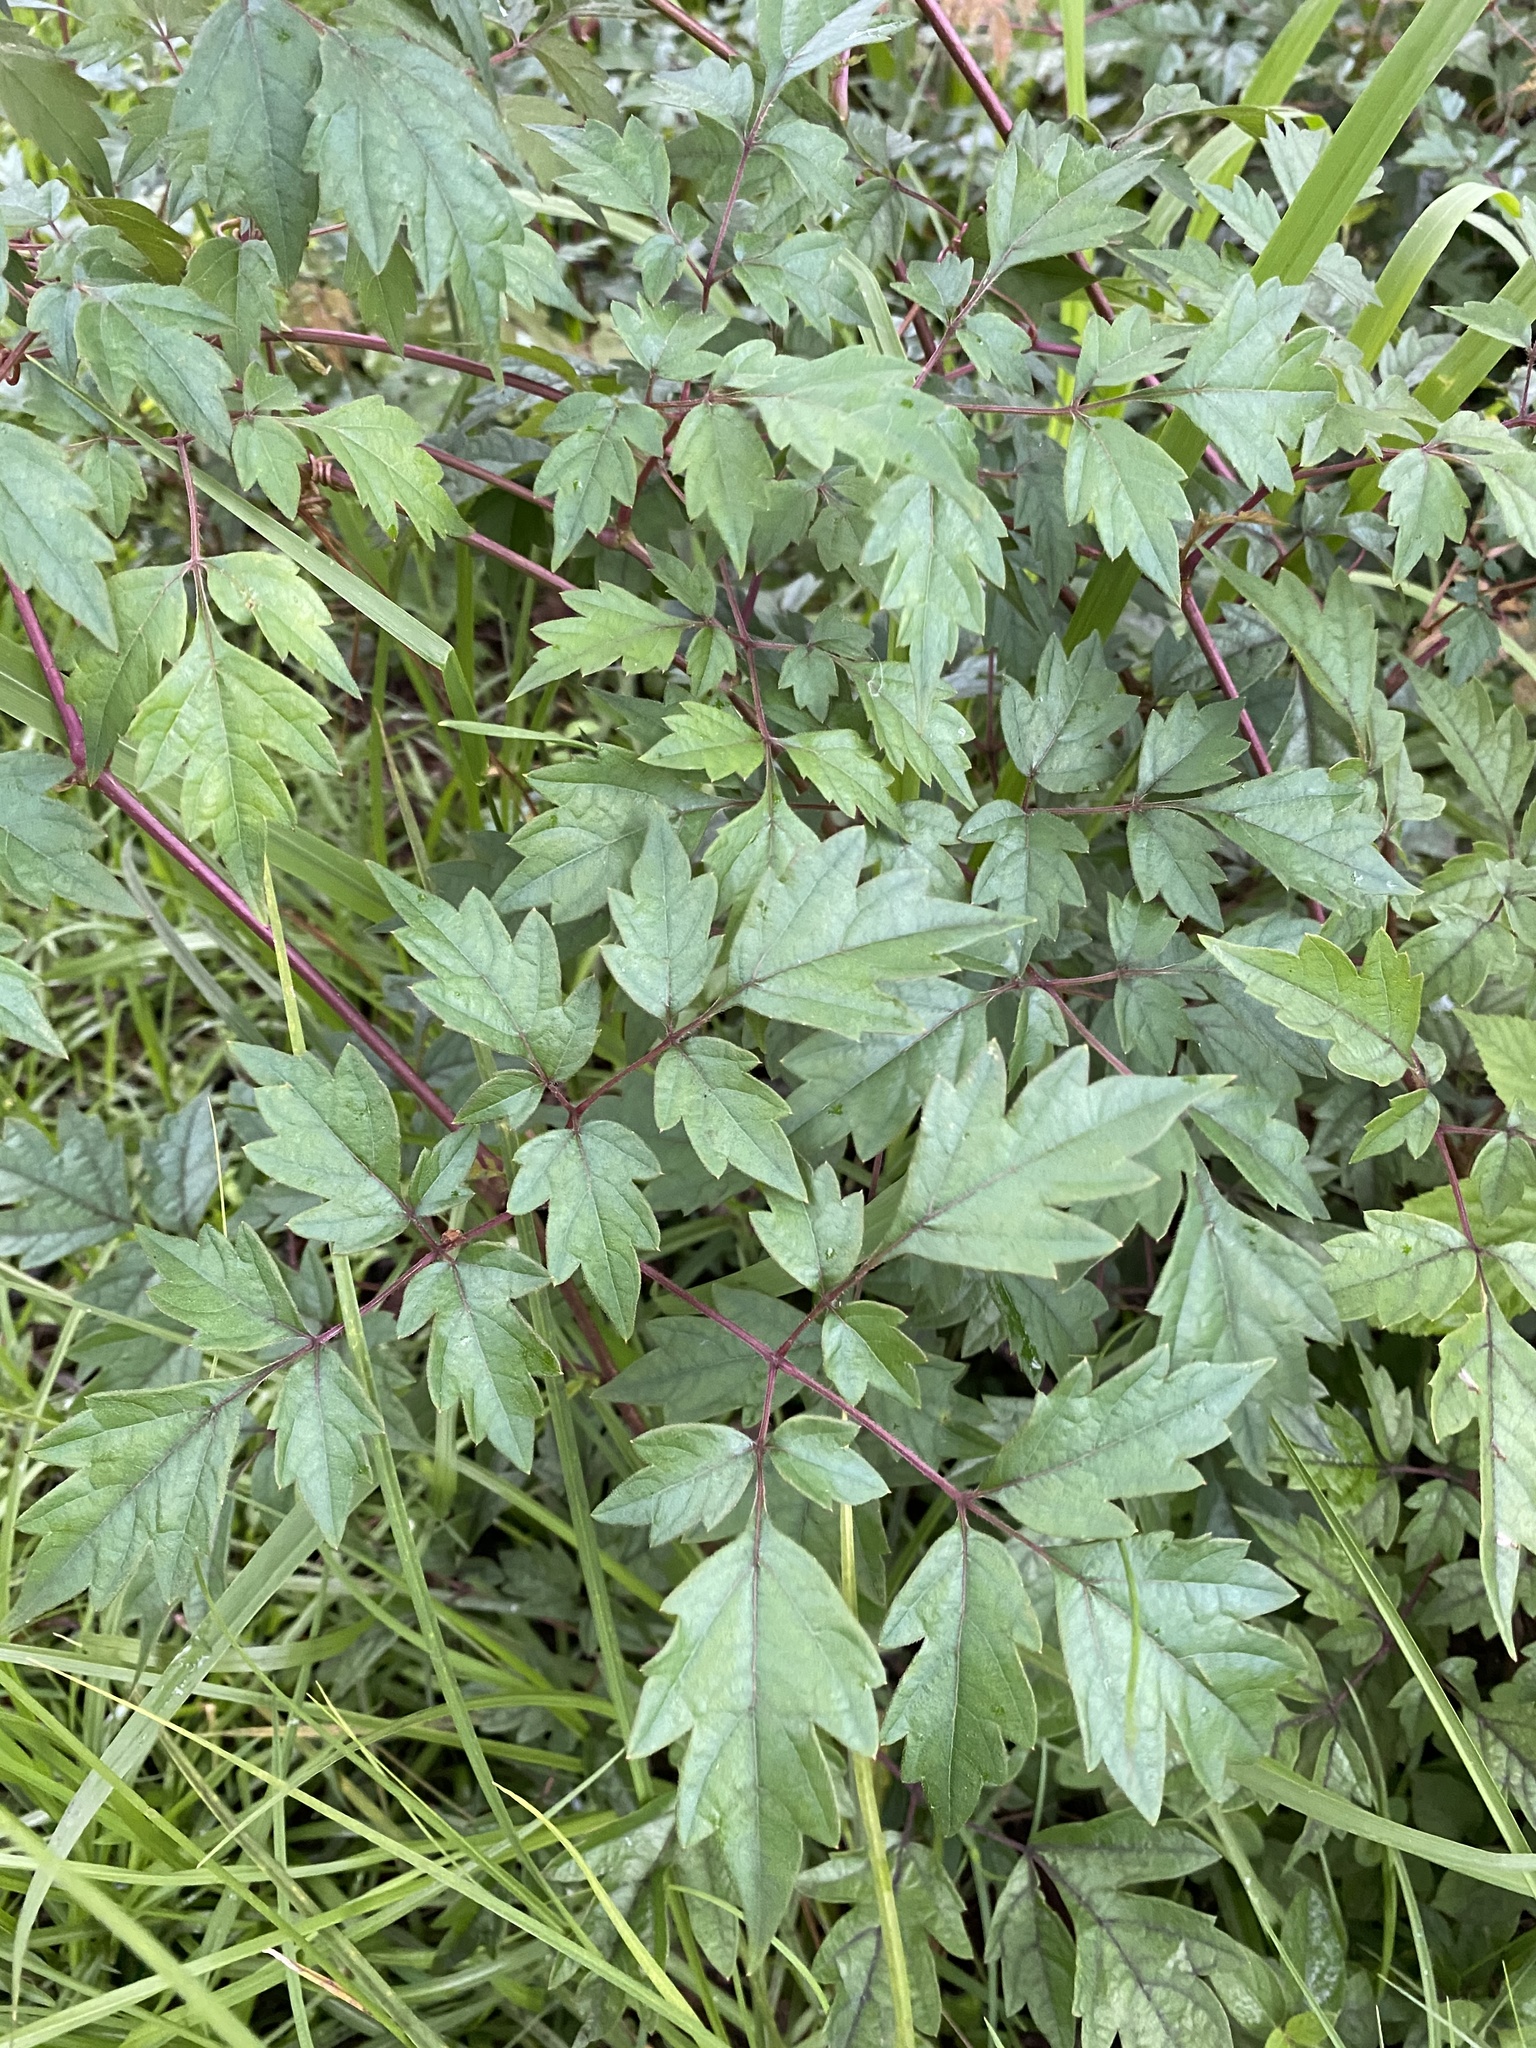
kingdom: Plantae
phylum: Tracheophyta
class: Magnoliopsida
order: Vitales
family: Vitaceae
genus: Nekemias
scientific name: Nekemias arborea
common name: Peppervine
